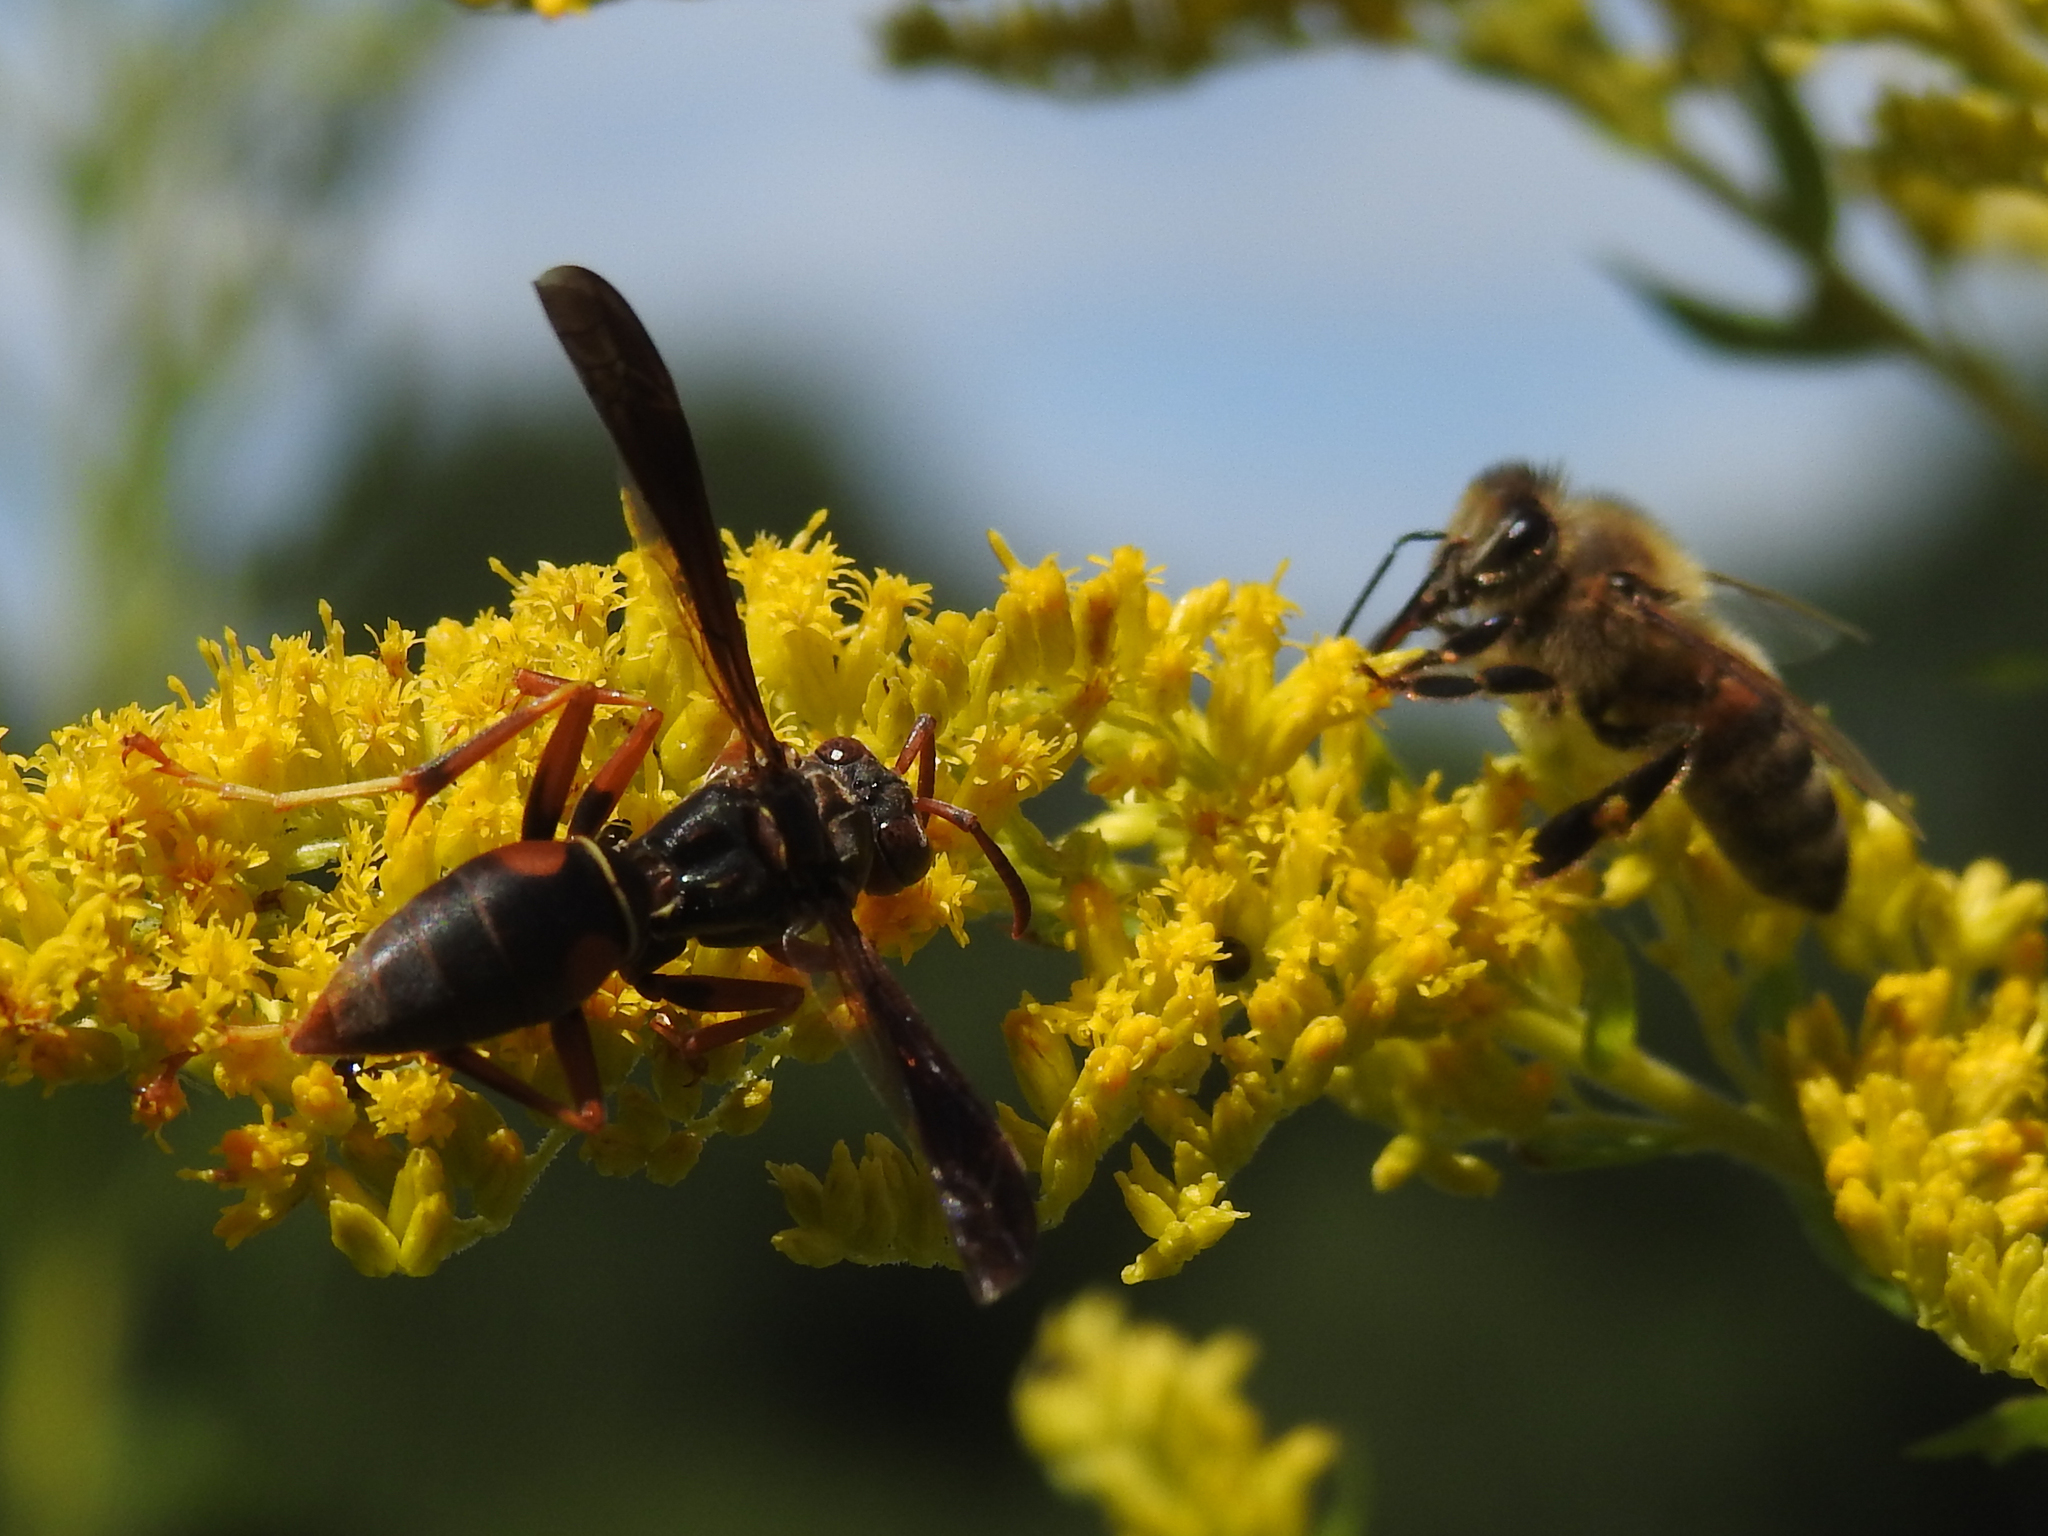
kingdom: Animalia
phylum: Arthropoda
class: Insecta
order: Hymenoptera
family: Eumenidae
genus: Polistes
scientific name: Polistes fuscatus
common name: Dark paper wasp
